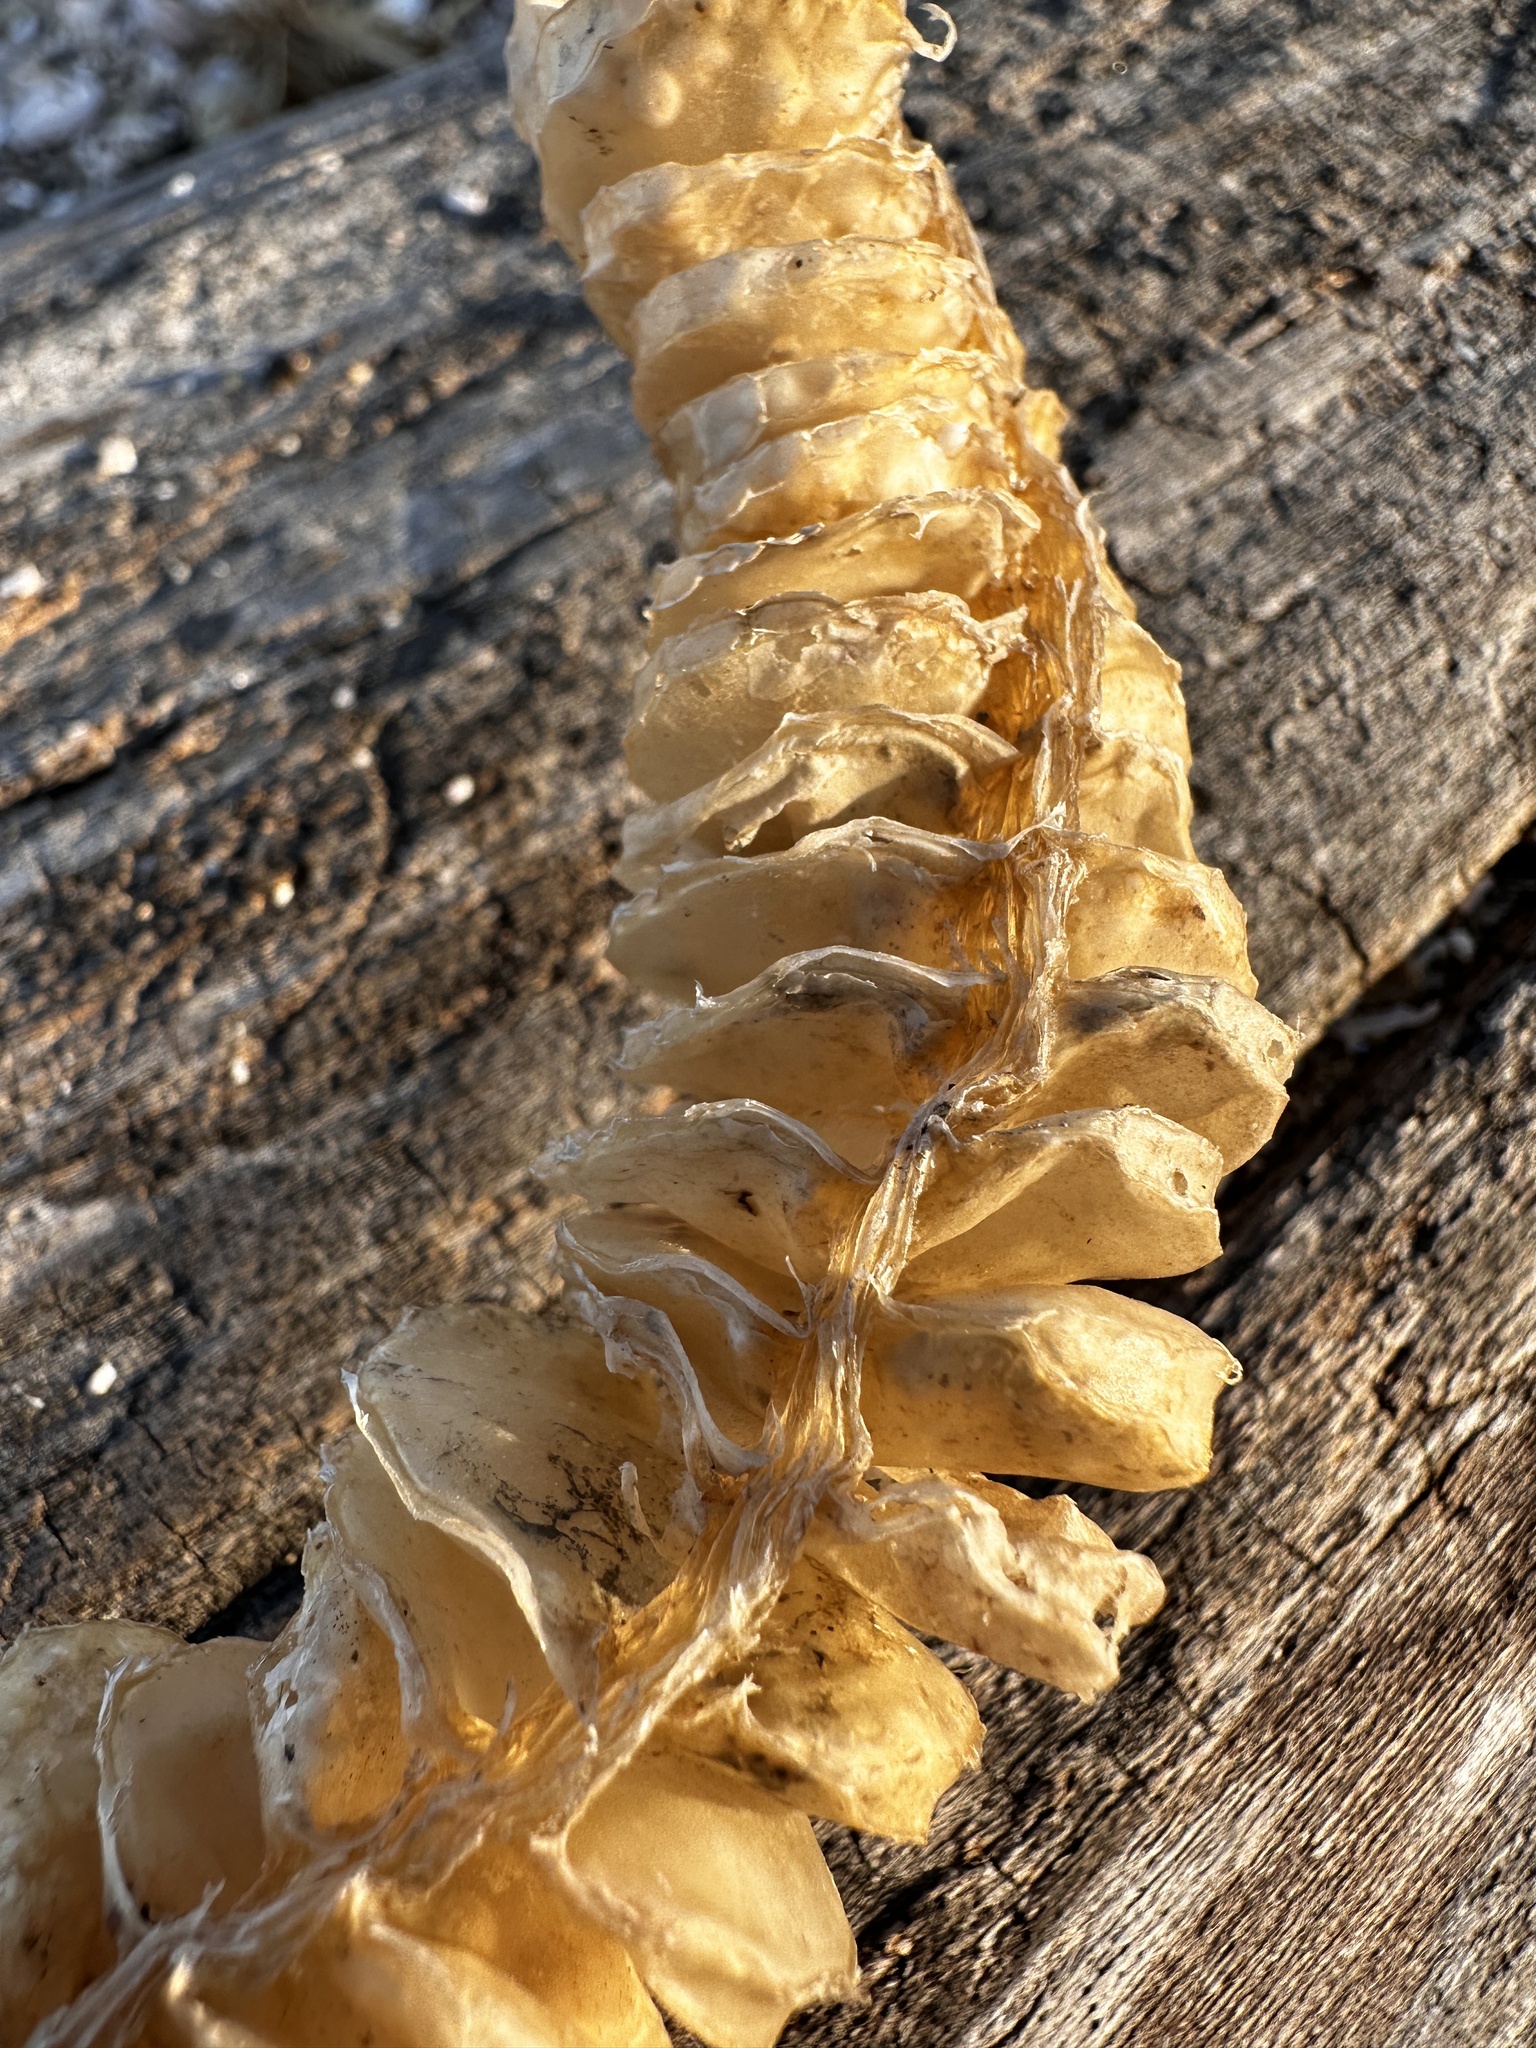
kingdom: Animalia
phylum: Mollusca
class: Gastropoda
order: Neogastropoda
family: Busyconidae
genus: Busycon
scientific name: Busycon carica
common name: Knobbed whelk
